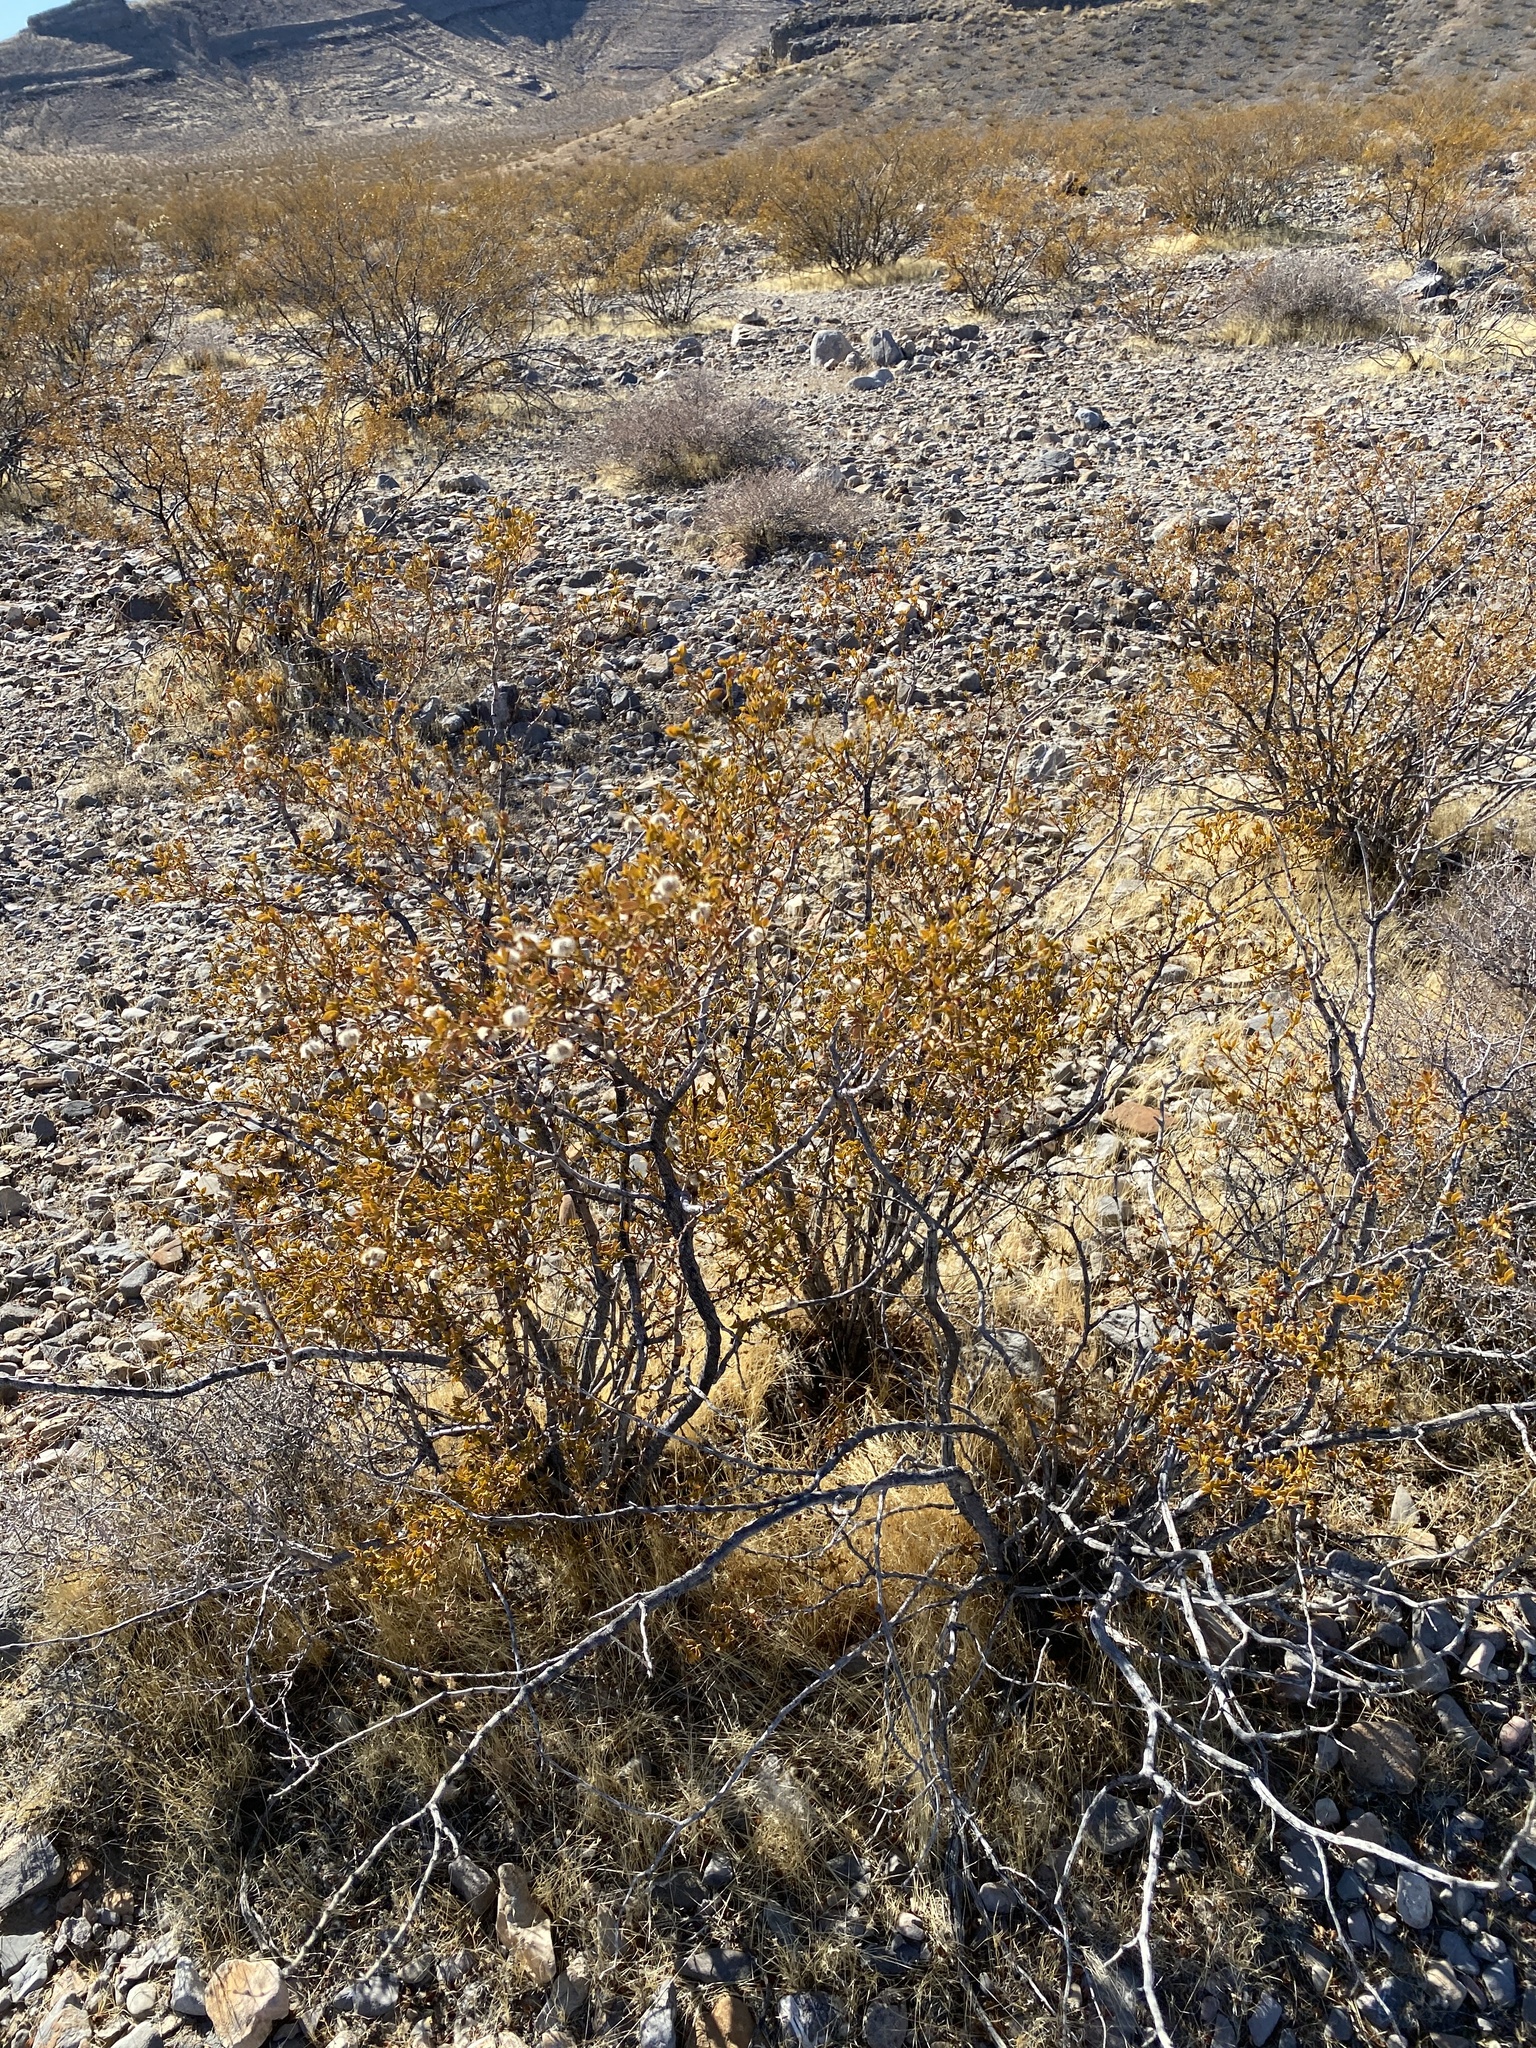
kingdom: Plantae
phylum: Tracheophyta
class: Magnoliopsida
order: Zygophyllales
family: Zygophyllaceae
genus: Larrea
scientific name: Larrea tridentata
